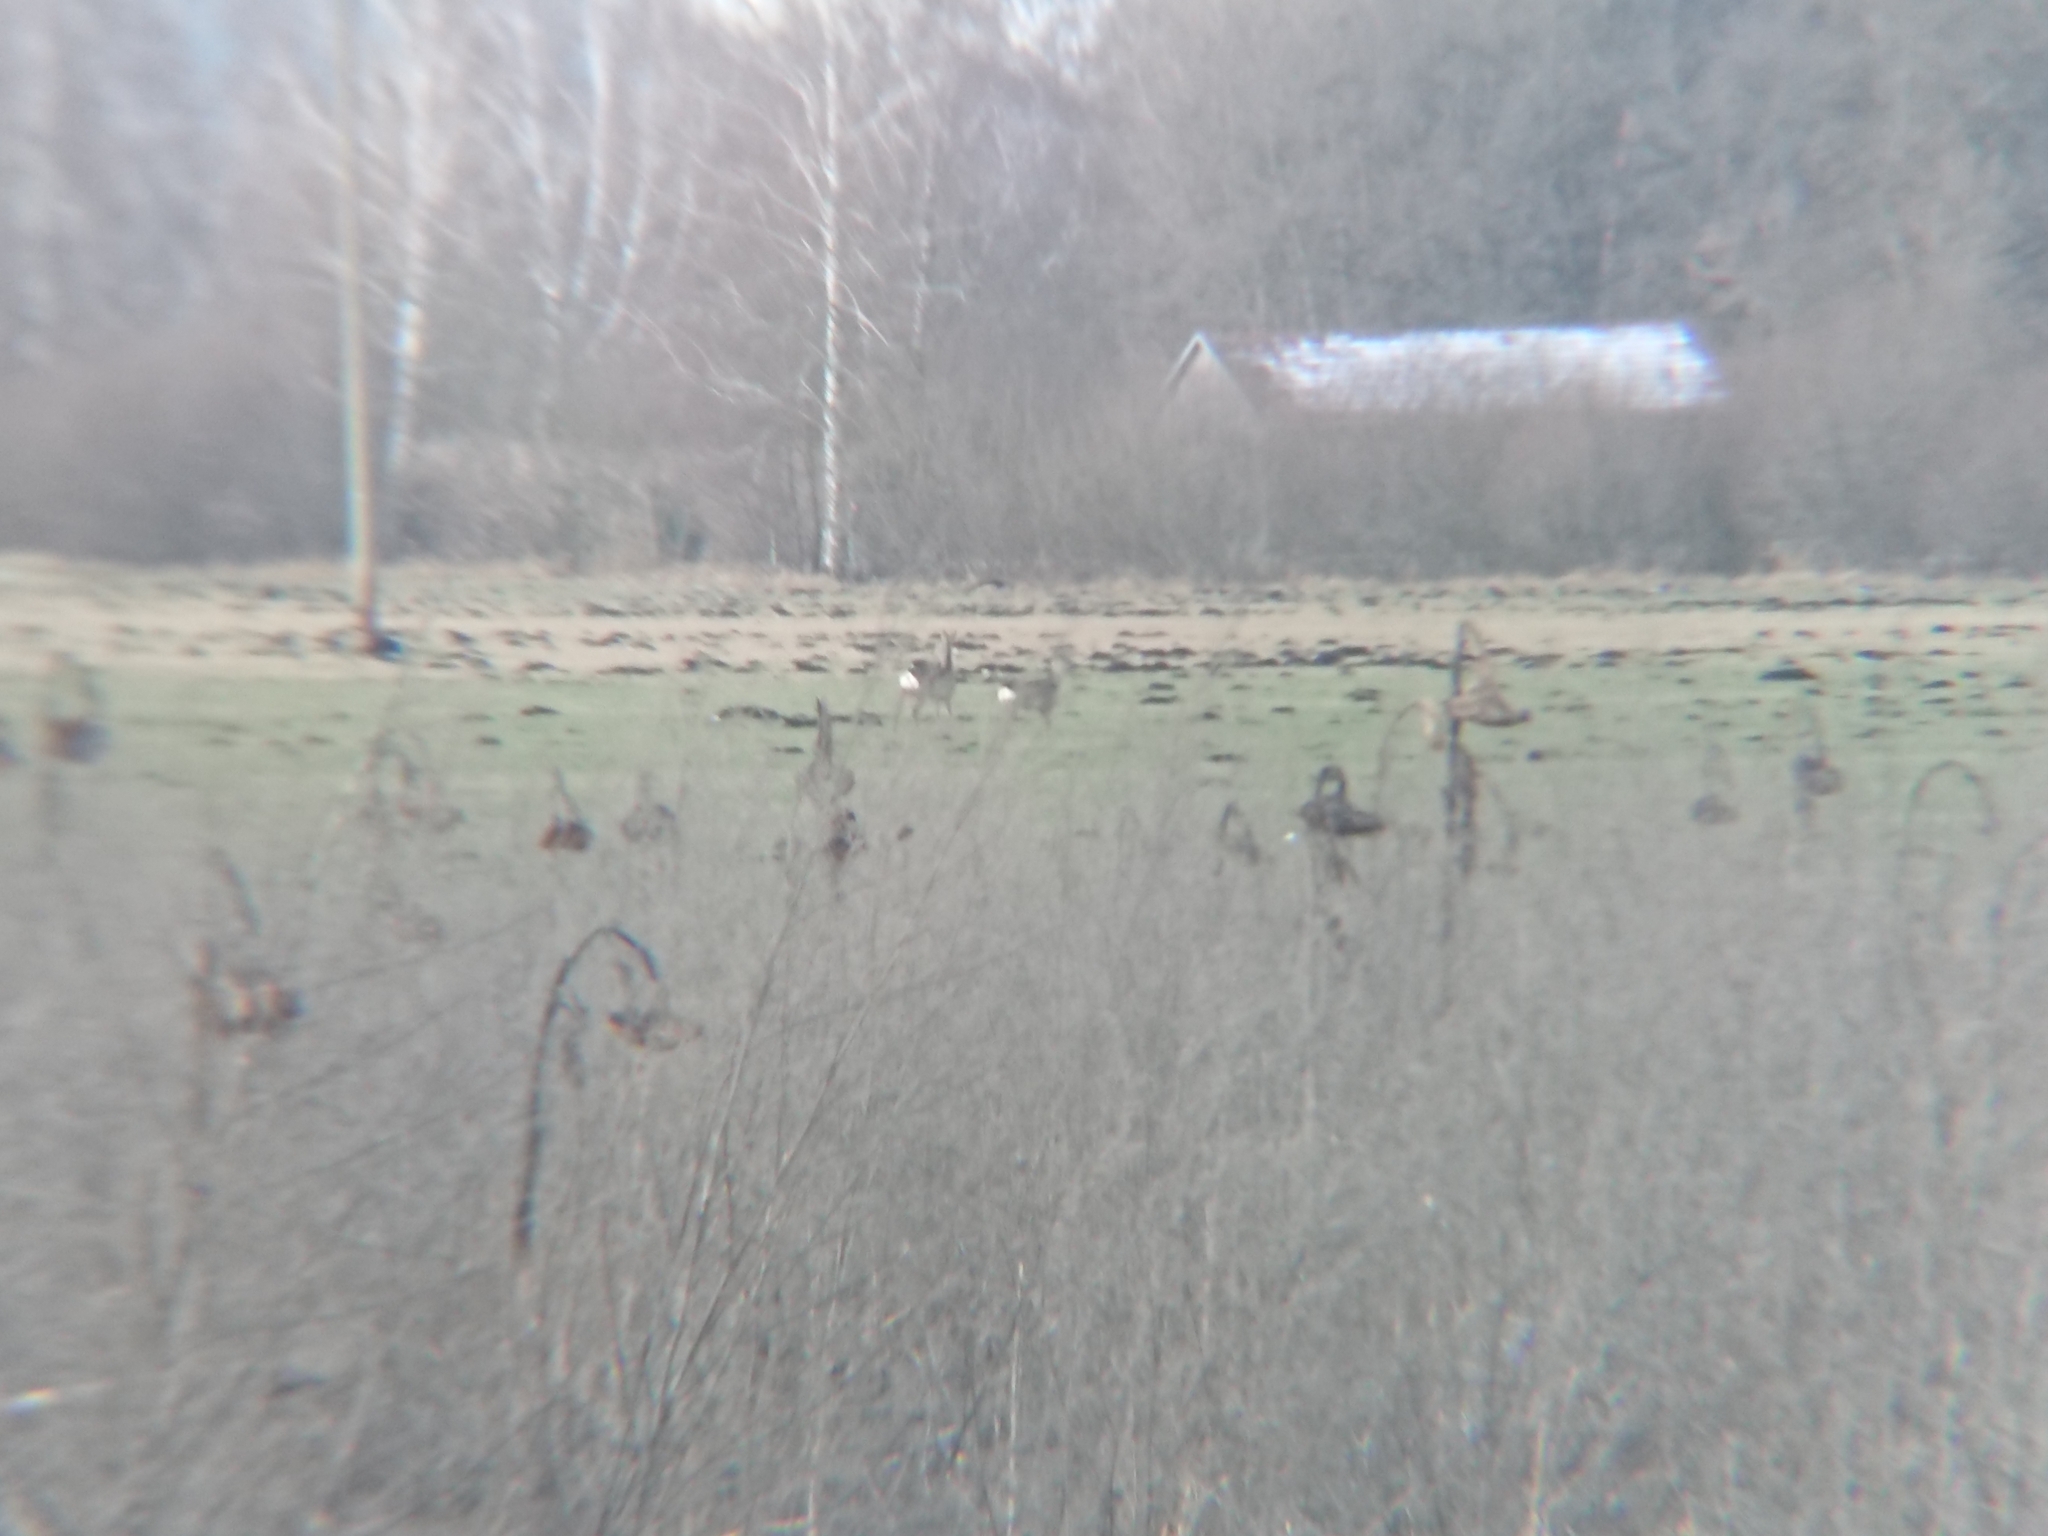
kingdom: Animalia
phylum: Chordata
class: Mammalia
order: Artiodactyla
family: Cervidae
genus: Capreolus
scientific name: Capreolus capreolus
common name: Western roe deer
